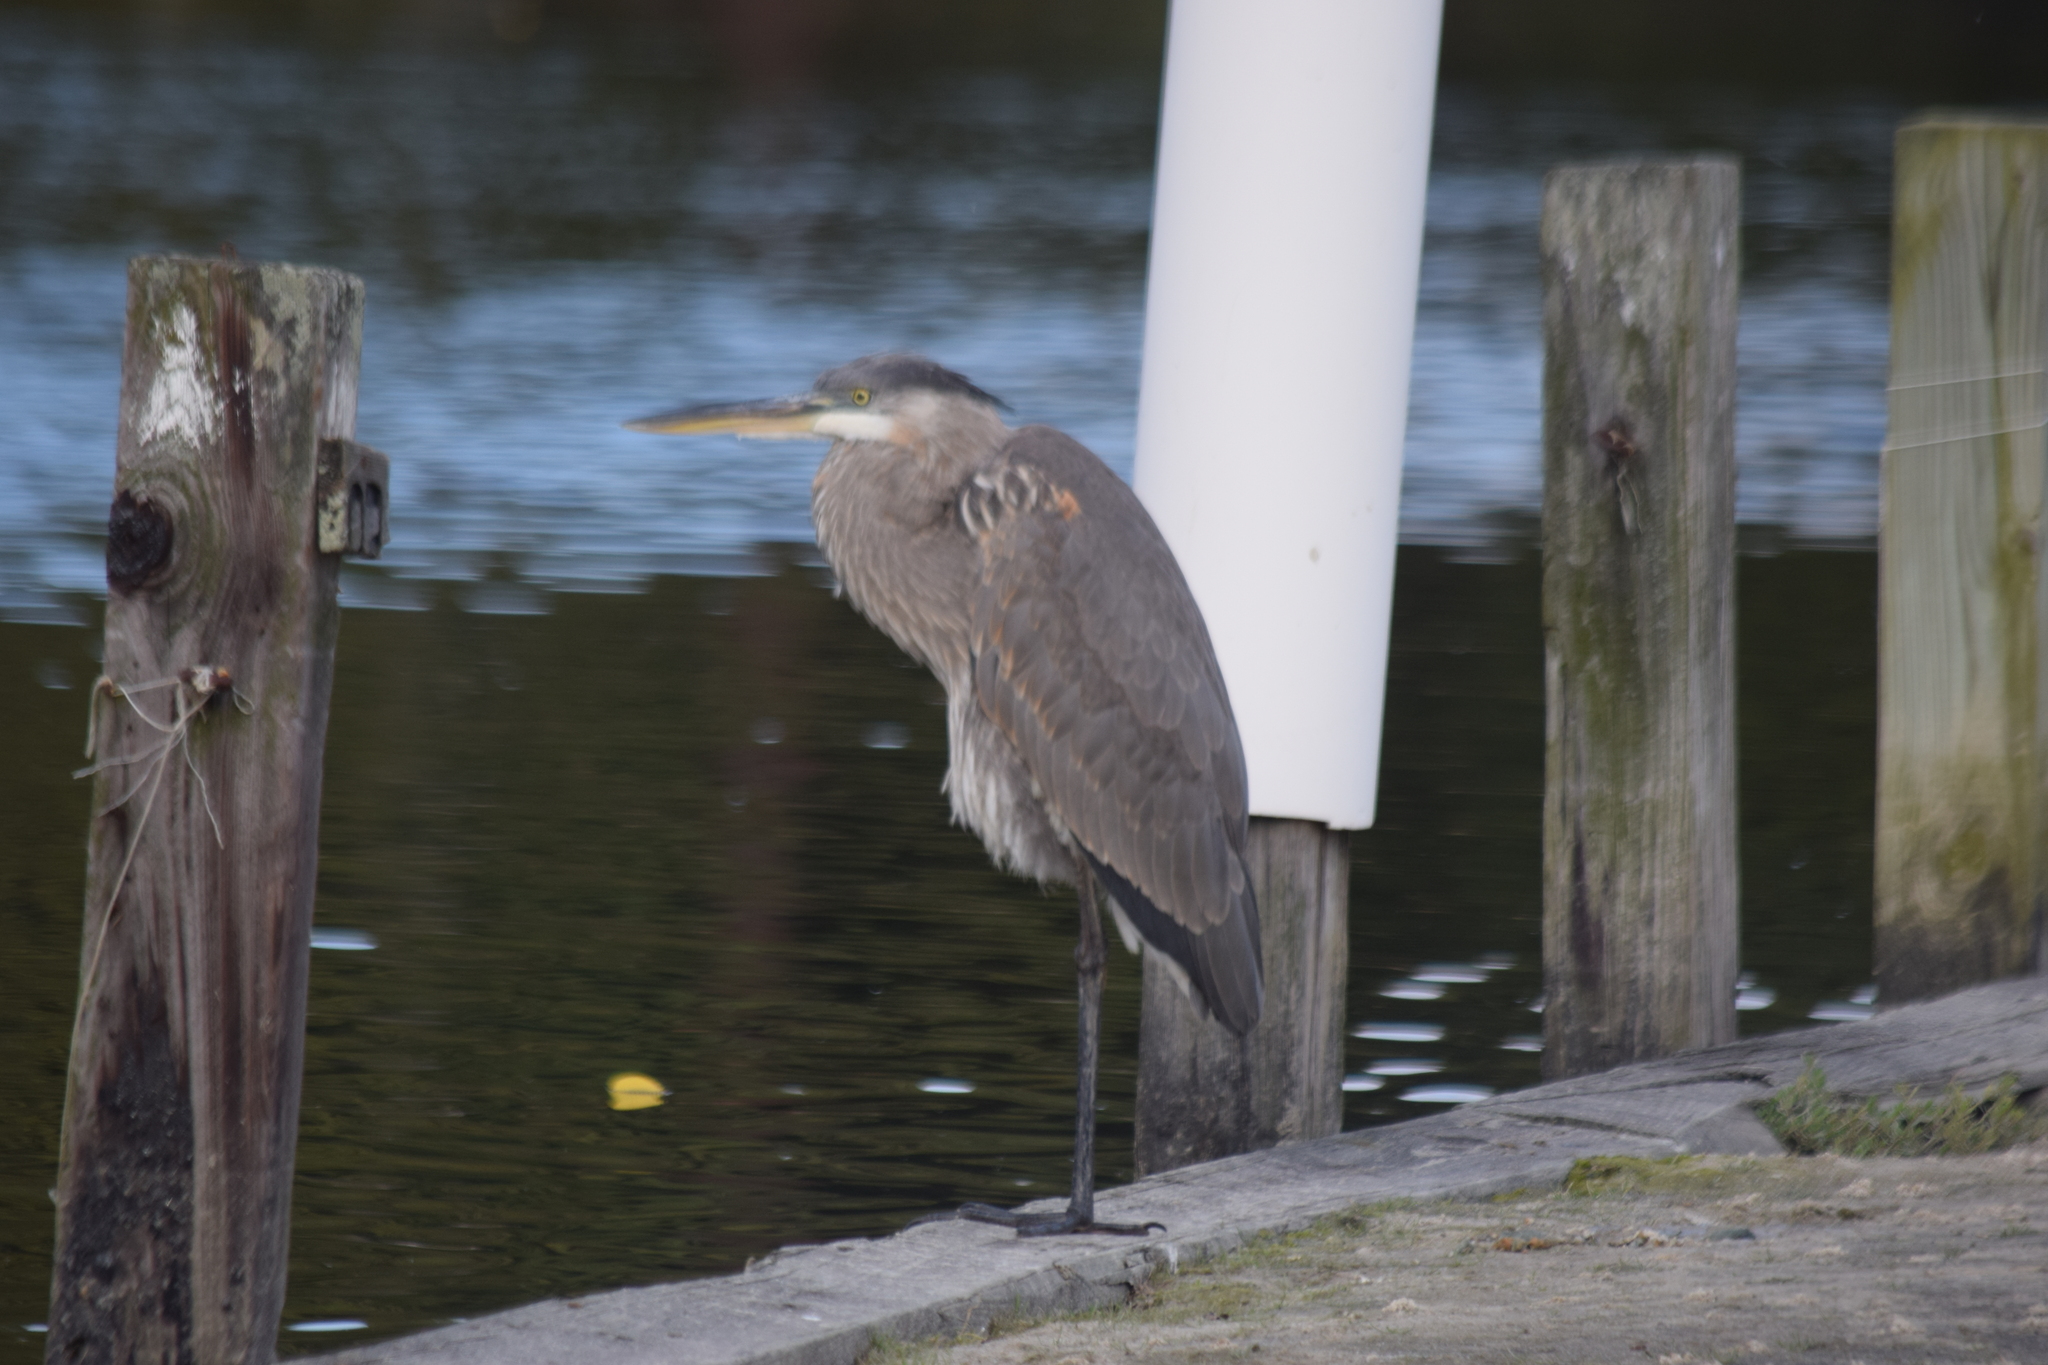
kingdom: Animalia
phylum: Chordata
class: Aves
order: Pelecaniformes
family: Ardeidae
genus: Ardea
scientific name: Ardea herodias
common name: Great blue heron
